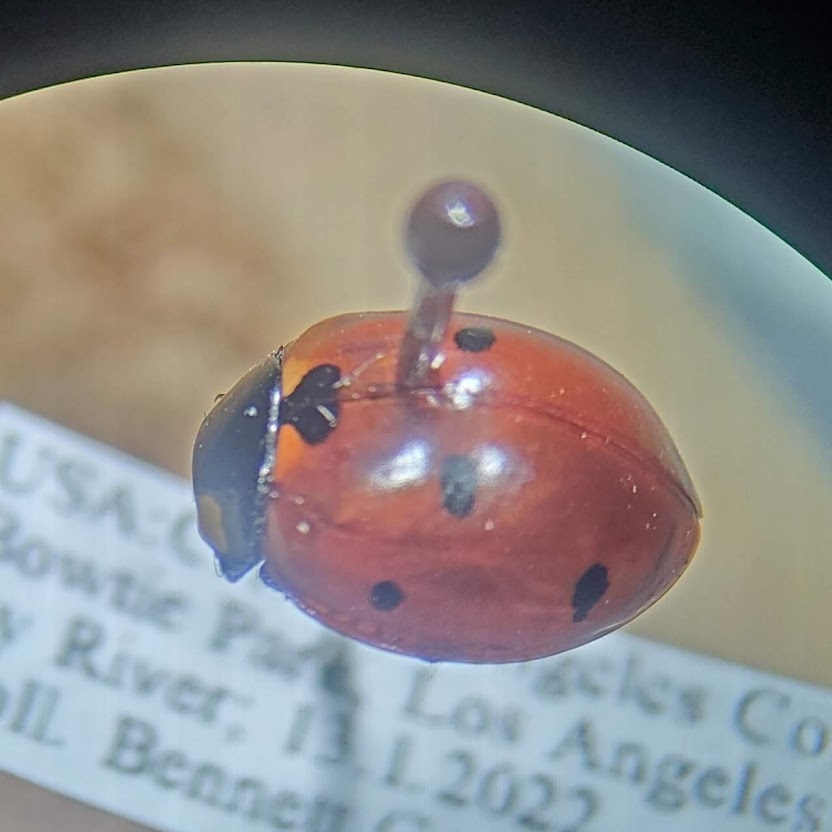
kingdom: Animalia
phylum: Arthropoda
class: Insecta
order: Coleoptera
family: Coccinellidae
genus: Coccinella
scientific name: Coccinella septempunctata
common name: Sevenspotted lady beetle
